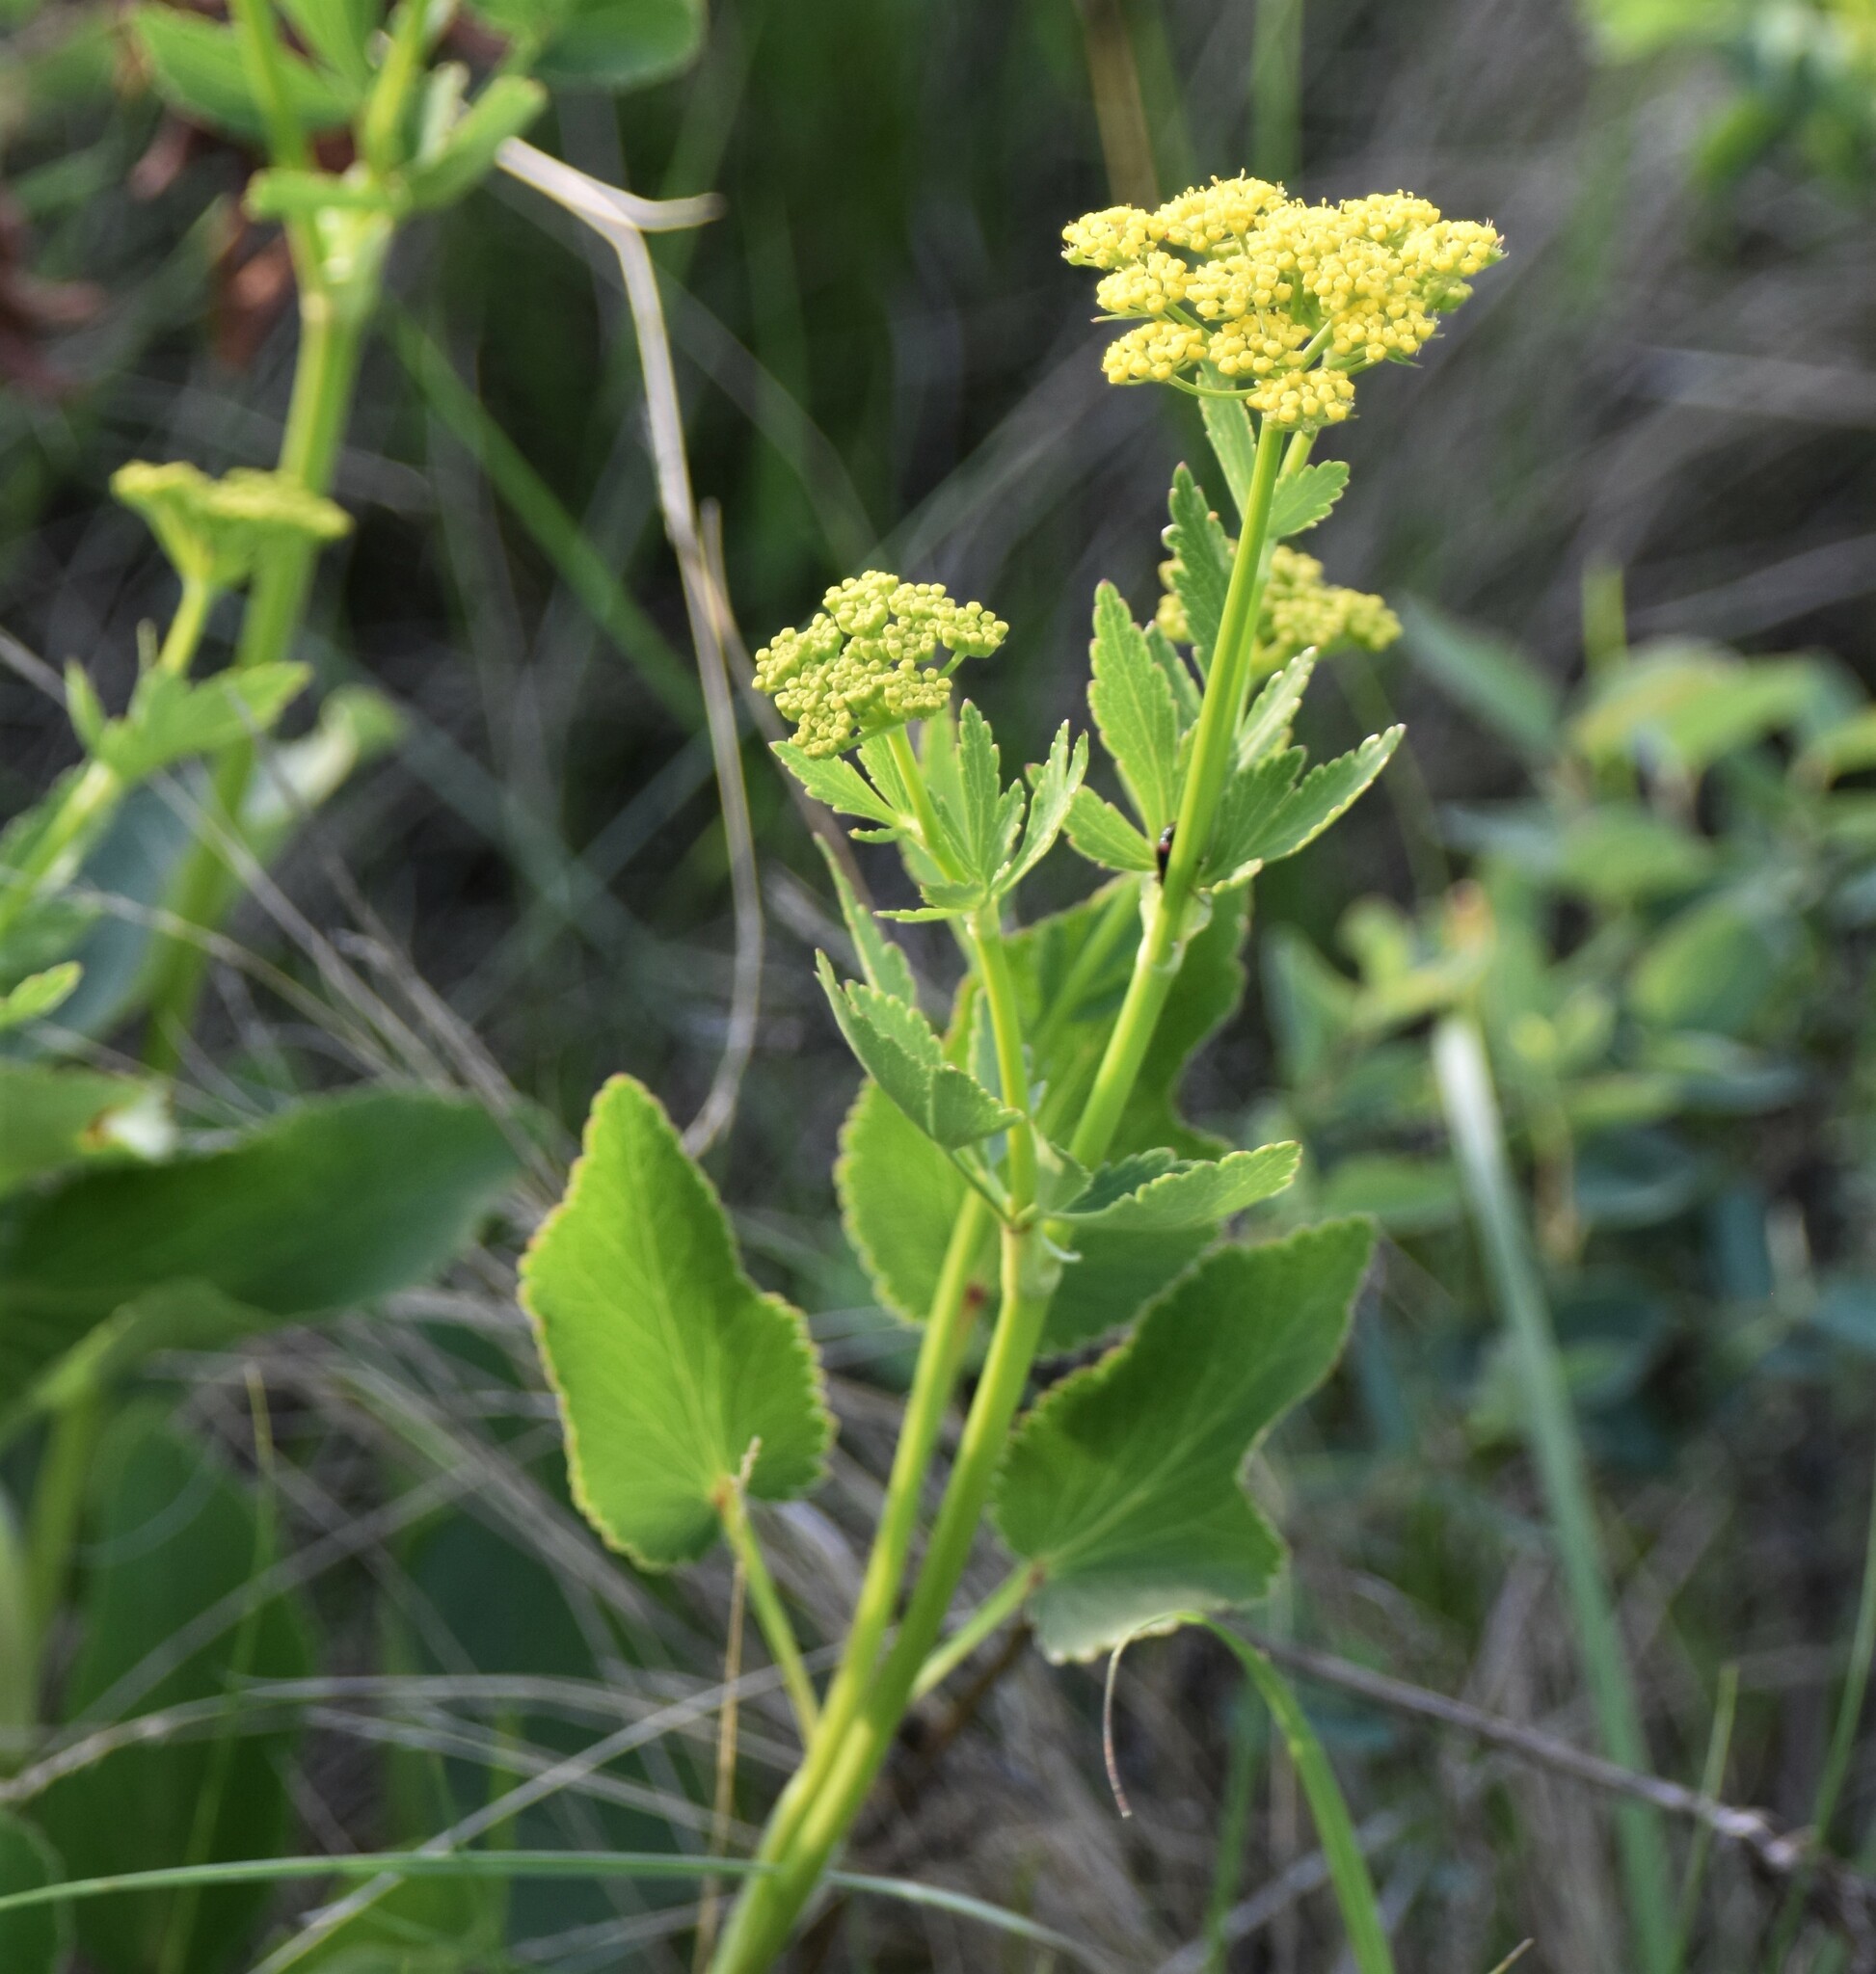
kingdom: Plantae
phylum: Tracheophyta
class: Magnoliopsida
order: Apiales
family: Apiaceae
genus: Zizia
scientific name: Zizia aptera
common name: Heart-leaved alexanders
